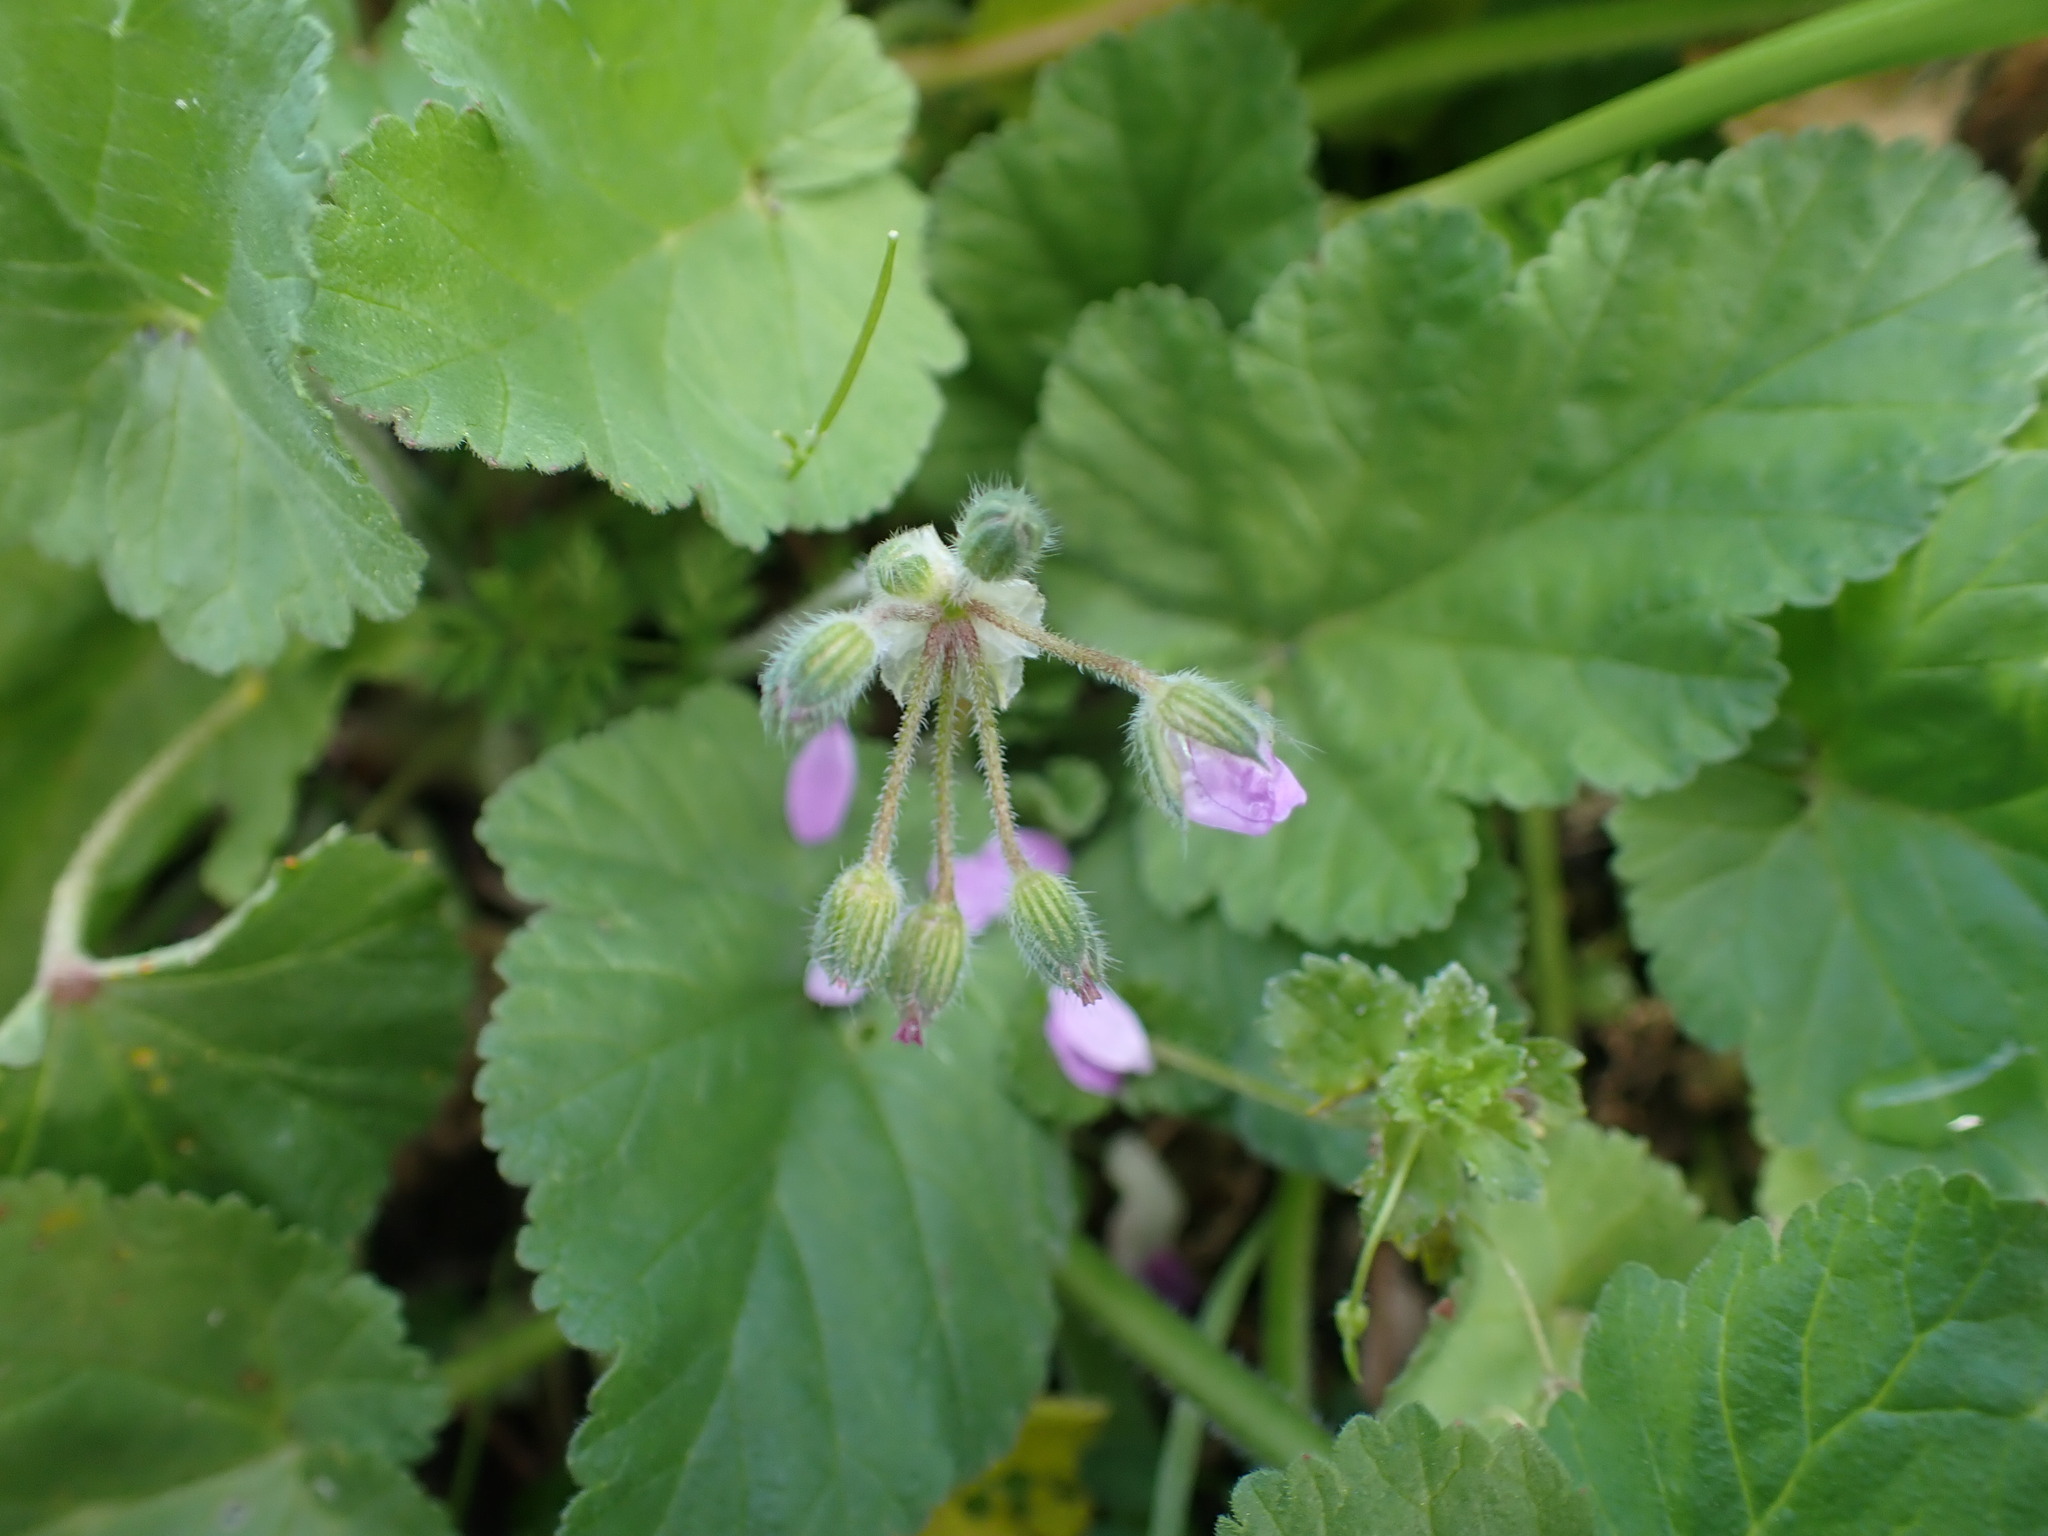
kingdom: Plantae
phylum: Tracheophyta
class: Magnoliopsida
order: Geraniales
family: Geraniaceae
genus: Erodium
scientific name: Erodium malacoides
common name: Soft stork's-bill
